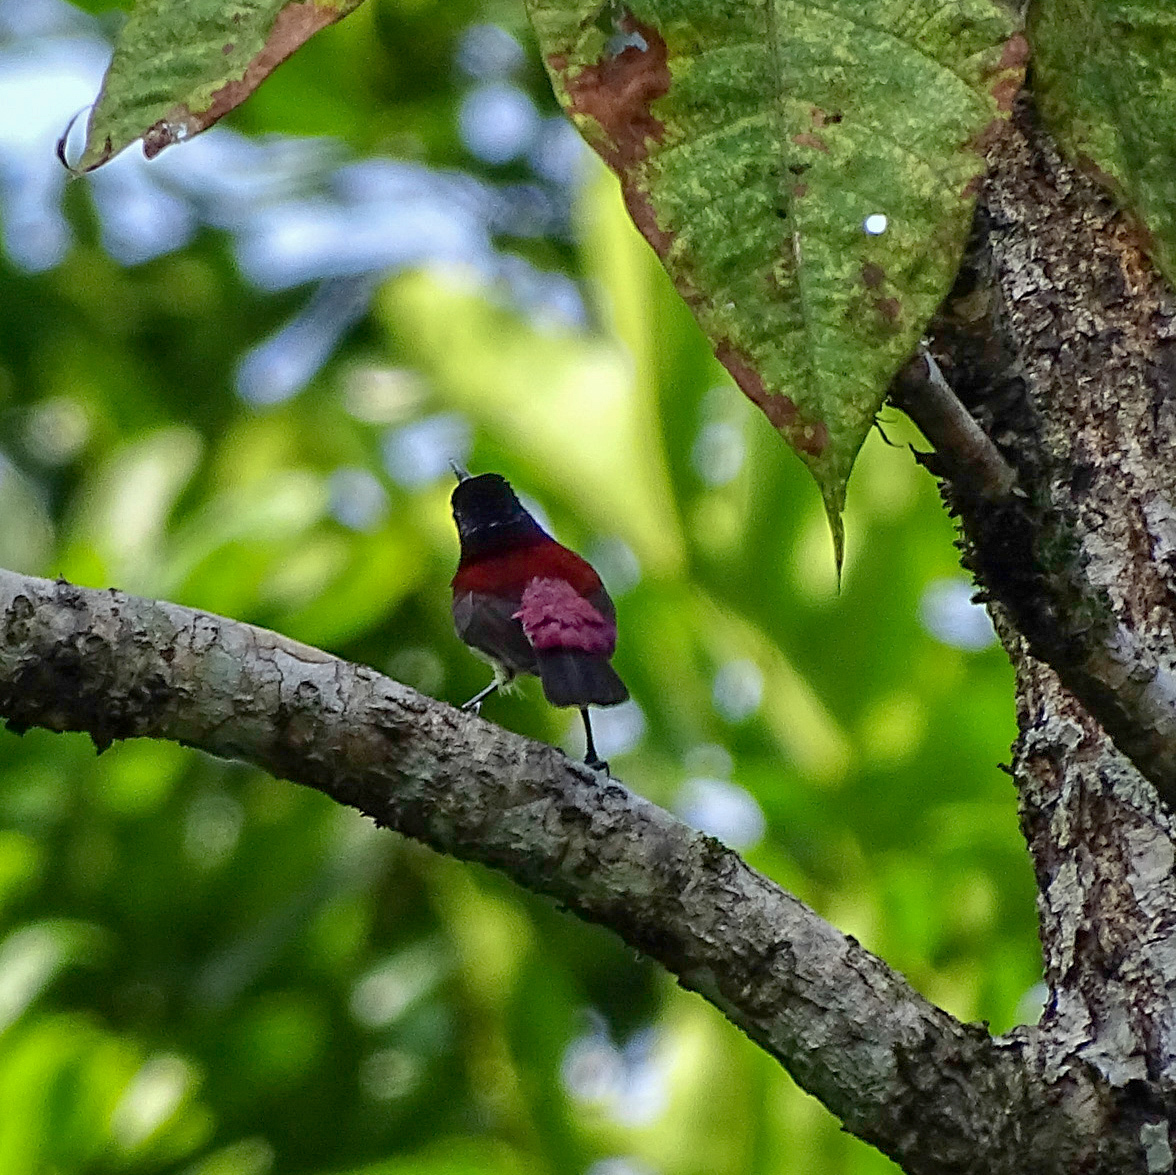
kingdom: Animalia
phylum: Chordata
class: Aves
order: Passeriformes
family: Nectariniidae
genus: Leptocoma
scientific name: Leptocoma minima
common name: Crimson-backed sunbird
